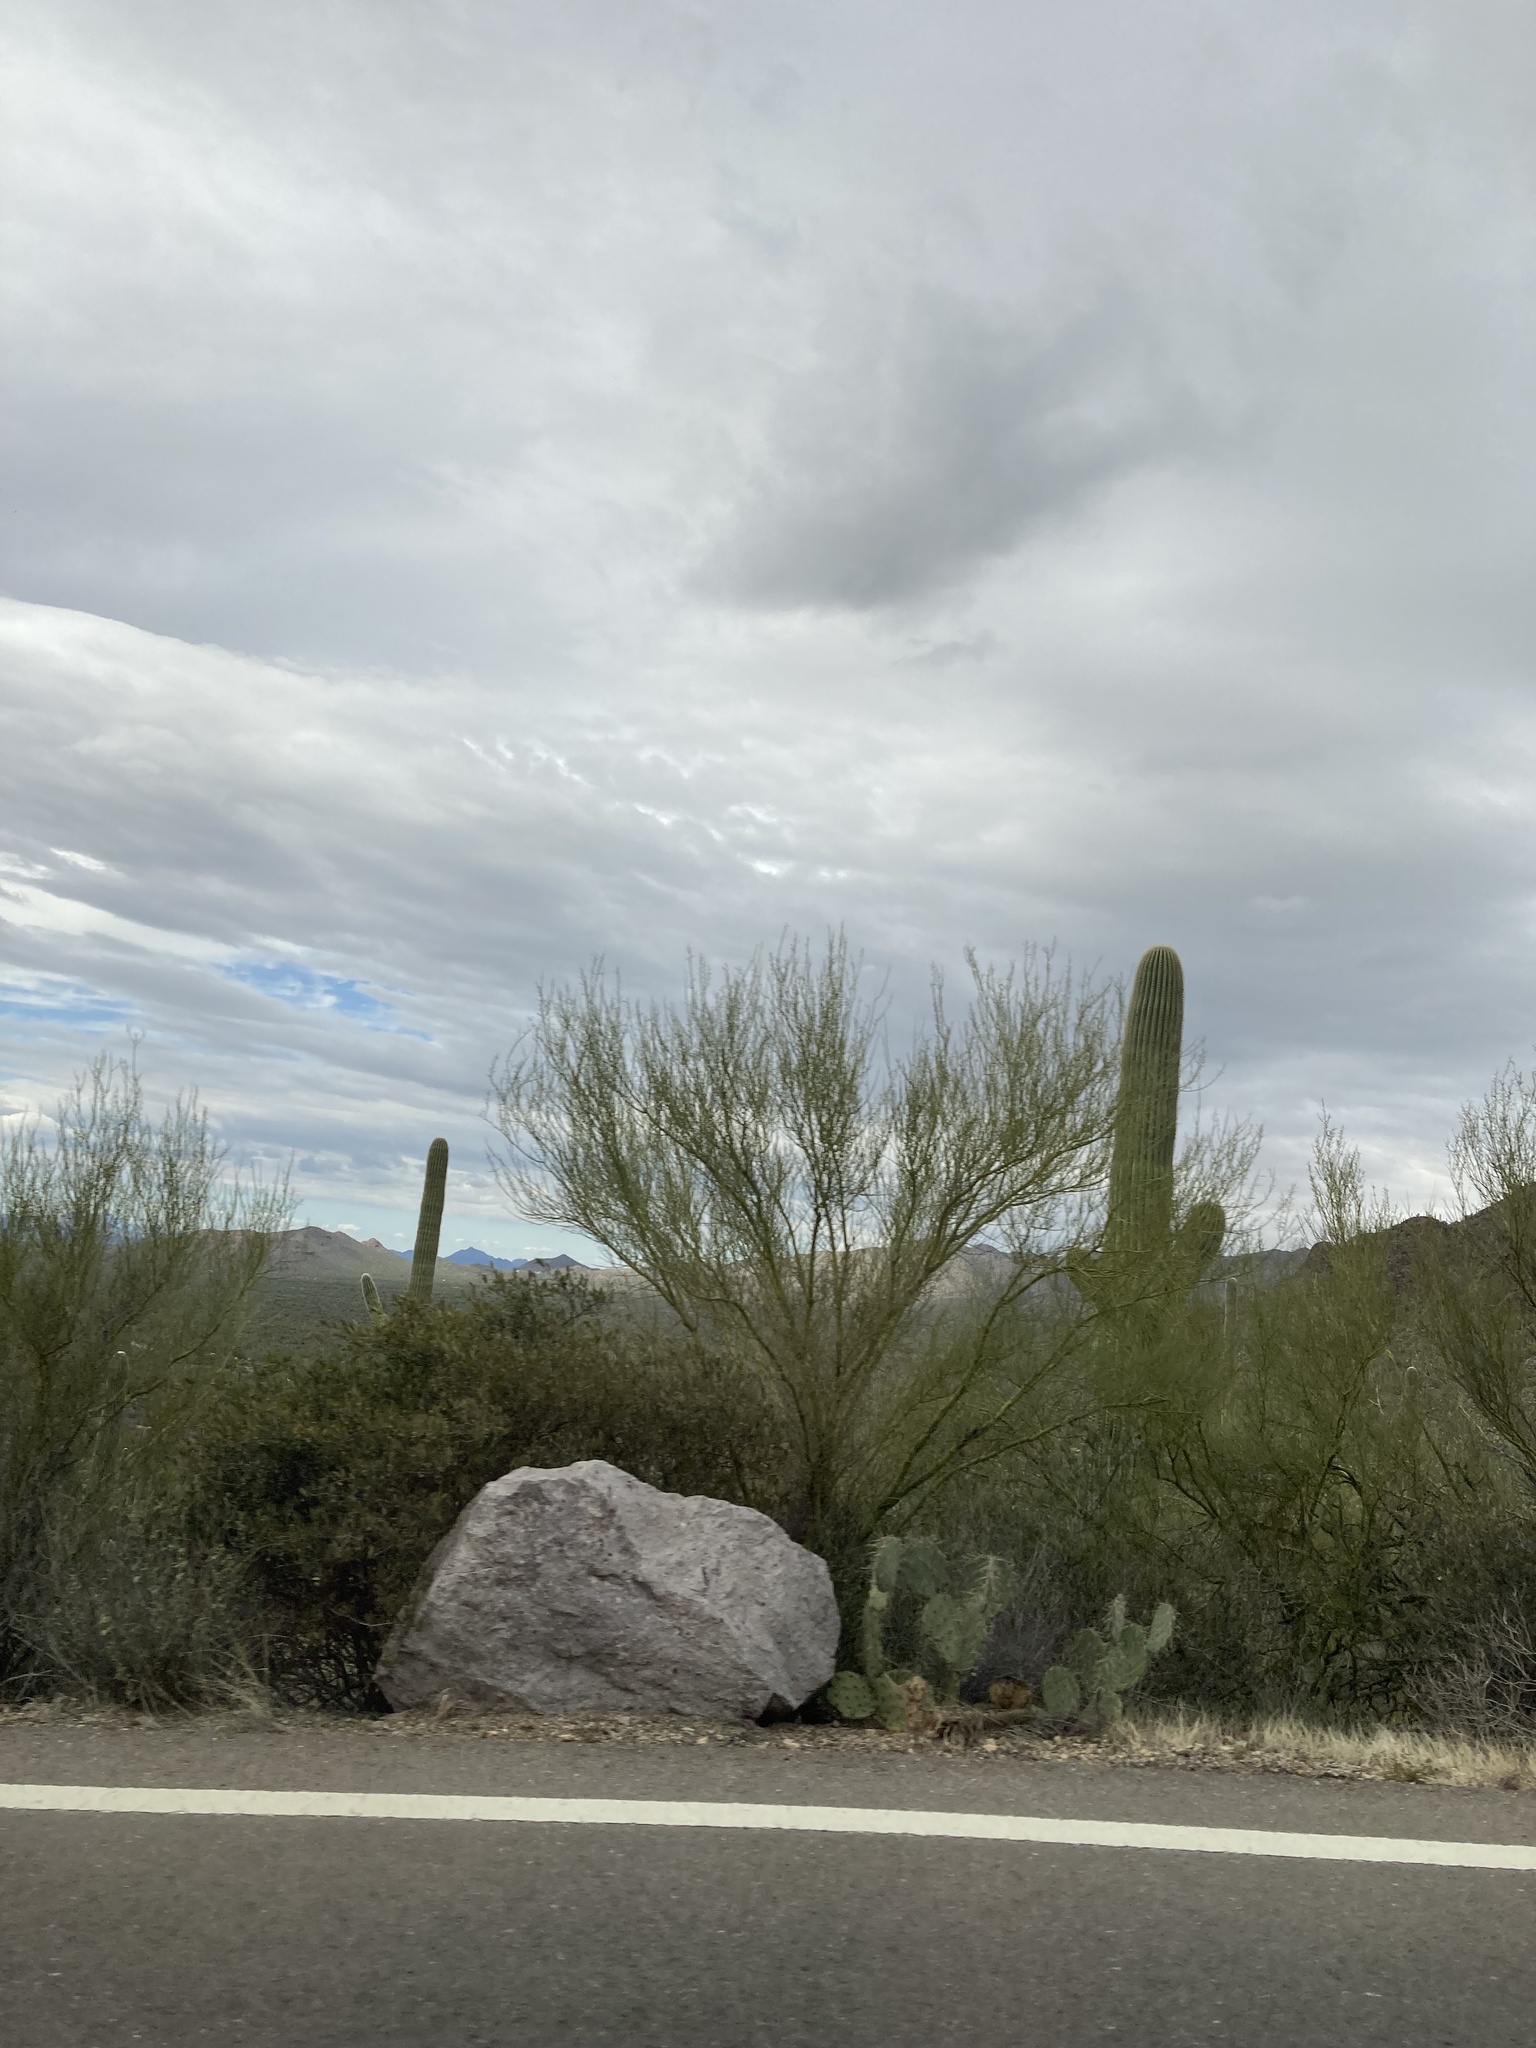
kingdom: Plantae
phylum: Tracheophyta
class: Magnoliopsida
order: Fabales
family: Fabaceae
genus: Parkinsonia
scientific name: Parkinsonia microphylla
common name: Yellow paloverde
